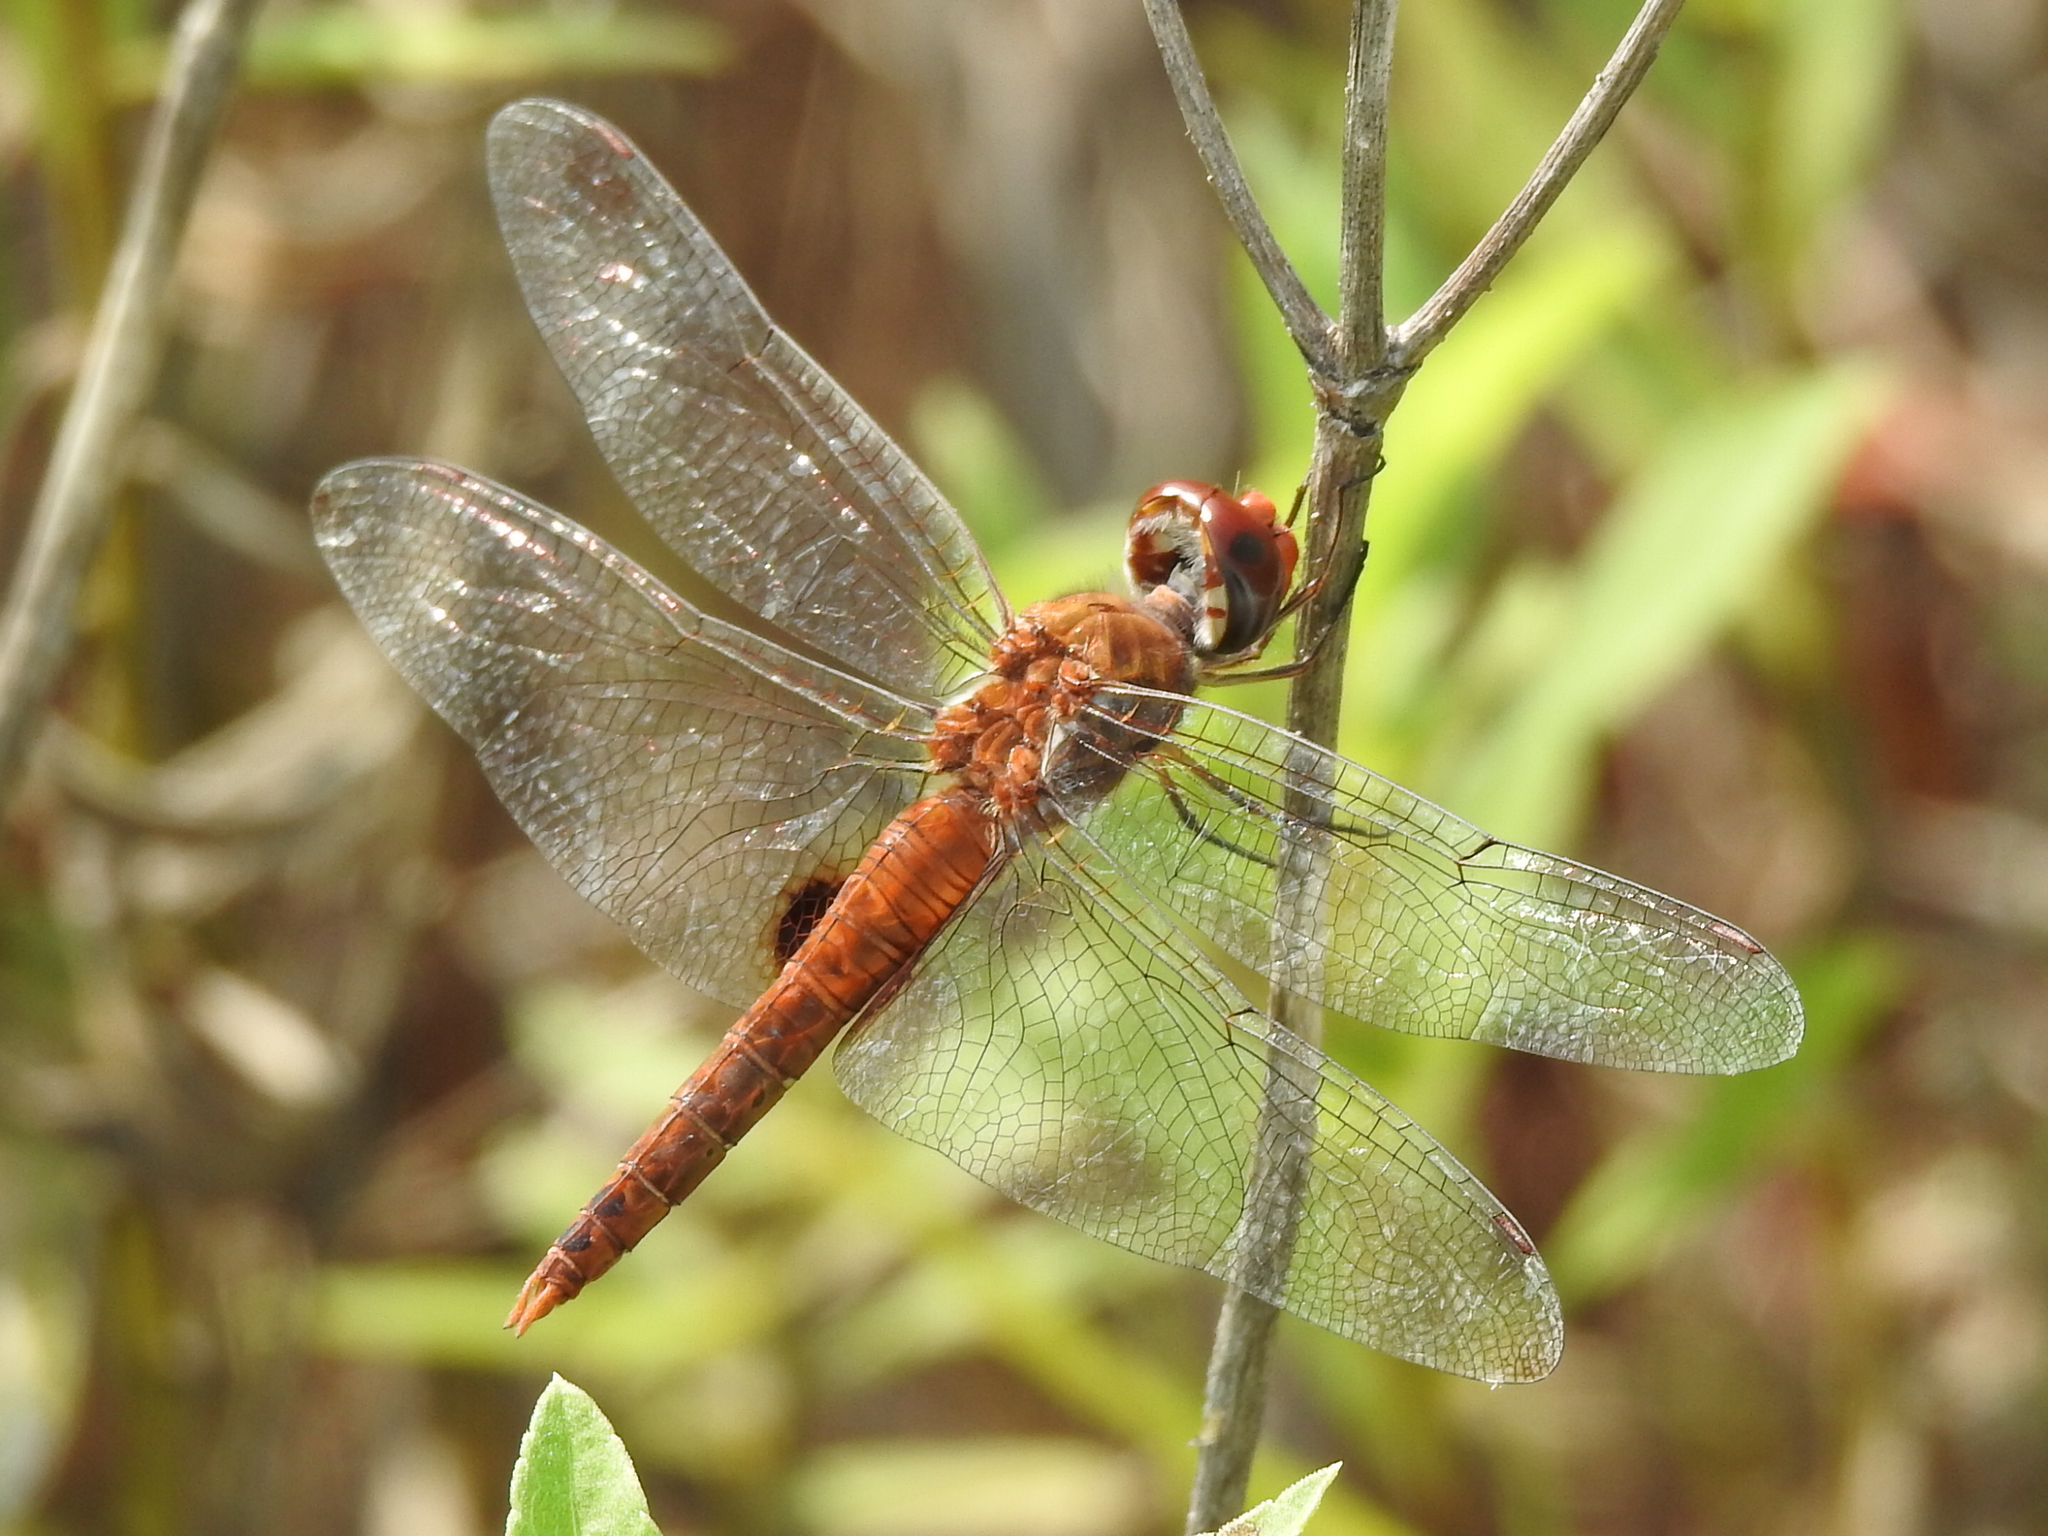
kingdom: Animalia
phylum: Arthropoda
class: Insecta
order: Odonata
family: Libellulidae
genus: Pantala
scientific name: Pantala hymenaea
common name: Spot-winged glider
